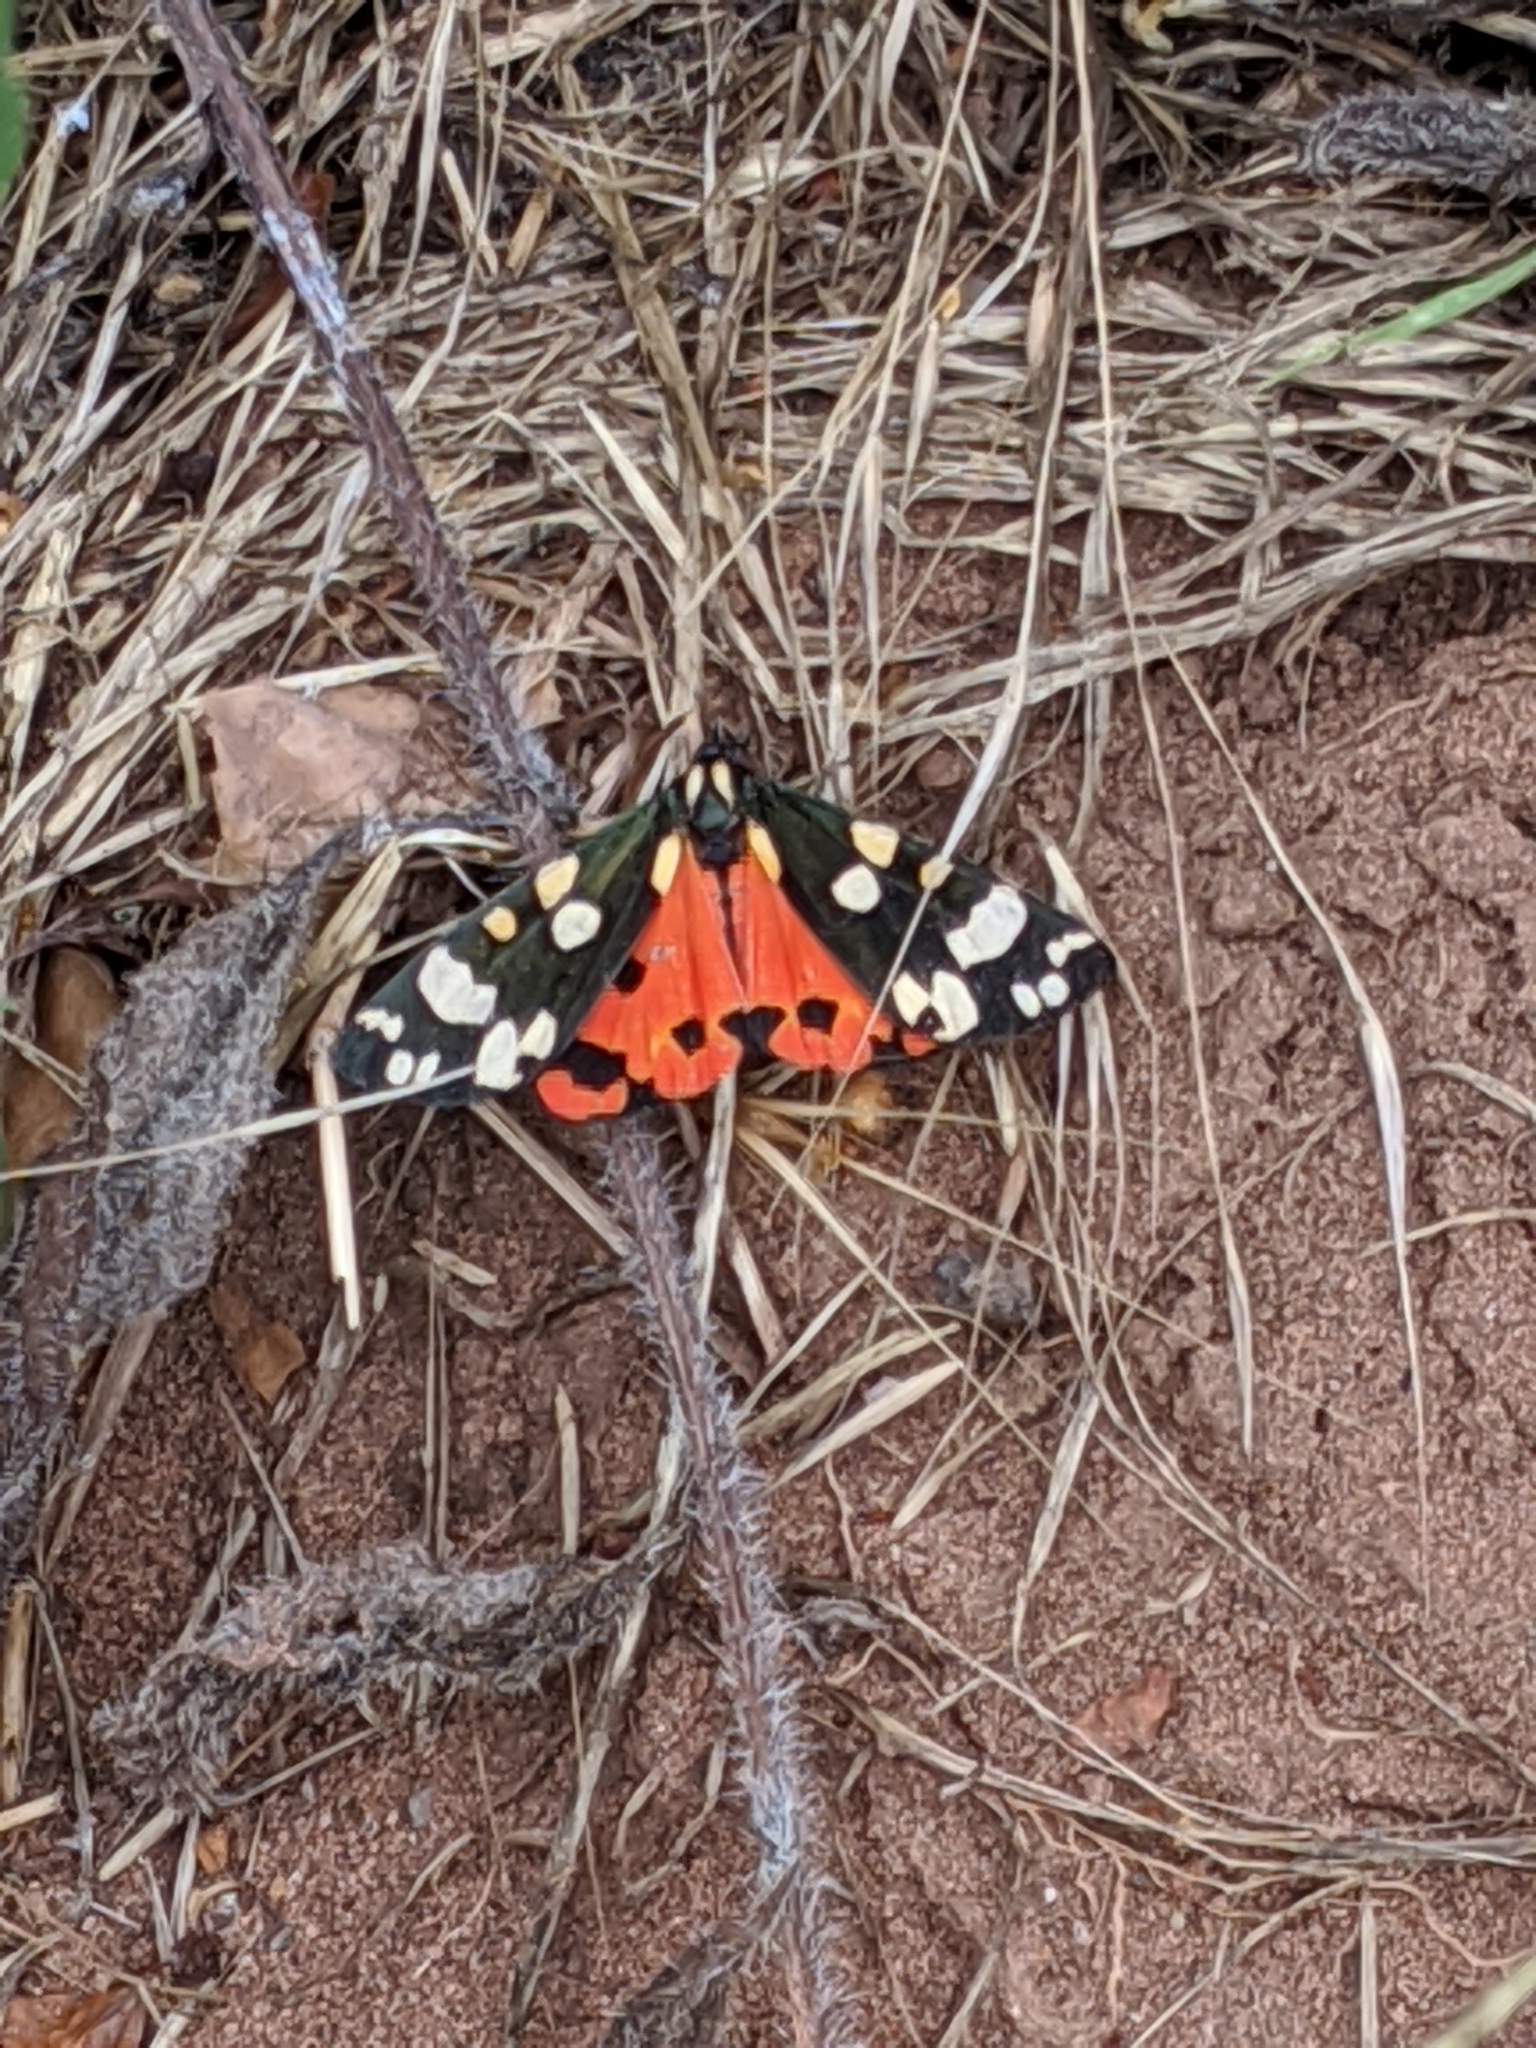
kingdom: Animalia
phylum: Arthropoda
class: Insecta
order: Lepidoptera
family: Erebidae
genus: Callimorpha
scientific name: Callimorpha dominula
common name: Scarlet tiger
